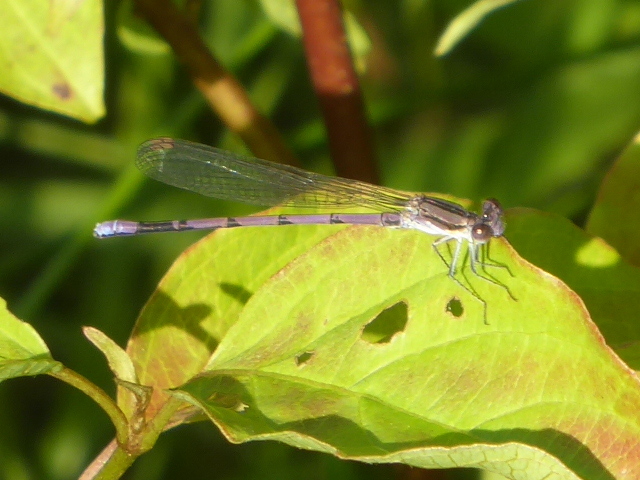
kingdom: Animalia
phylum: Arthropoda
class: Insecta
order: Odonata
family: Coenagrionidae
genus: Argia
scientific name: Argia fumipennis
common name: Variable dancer
